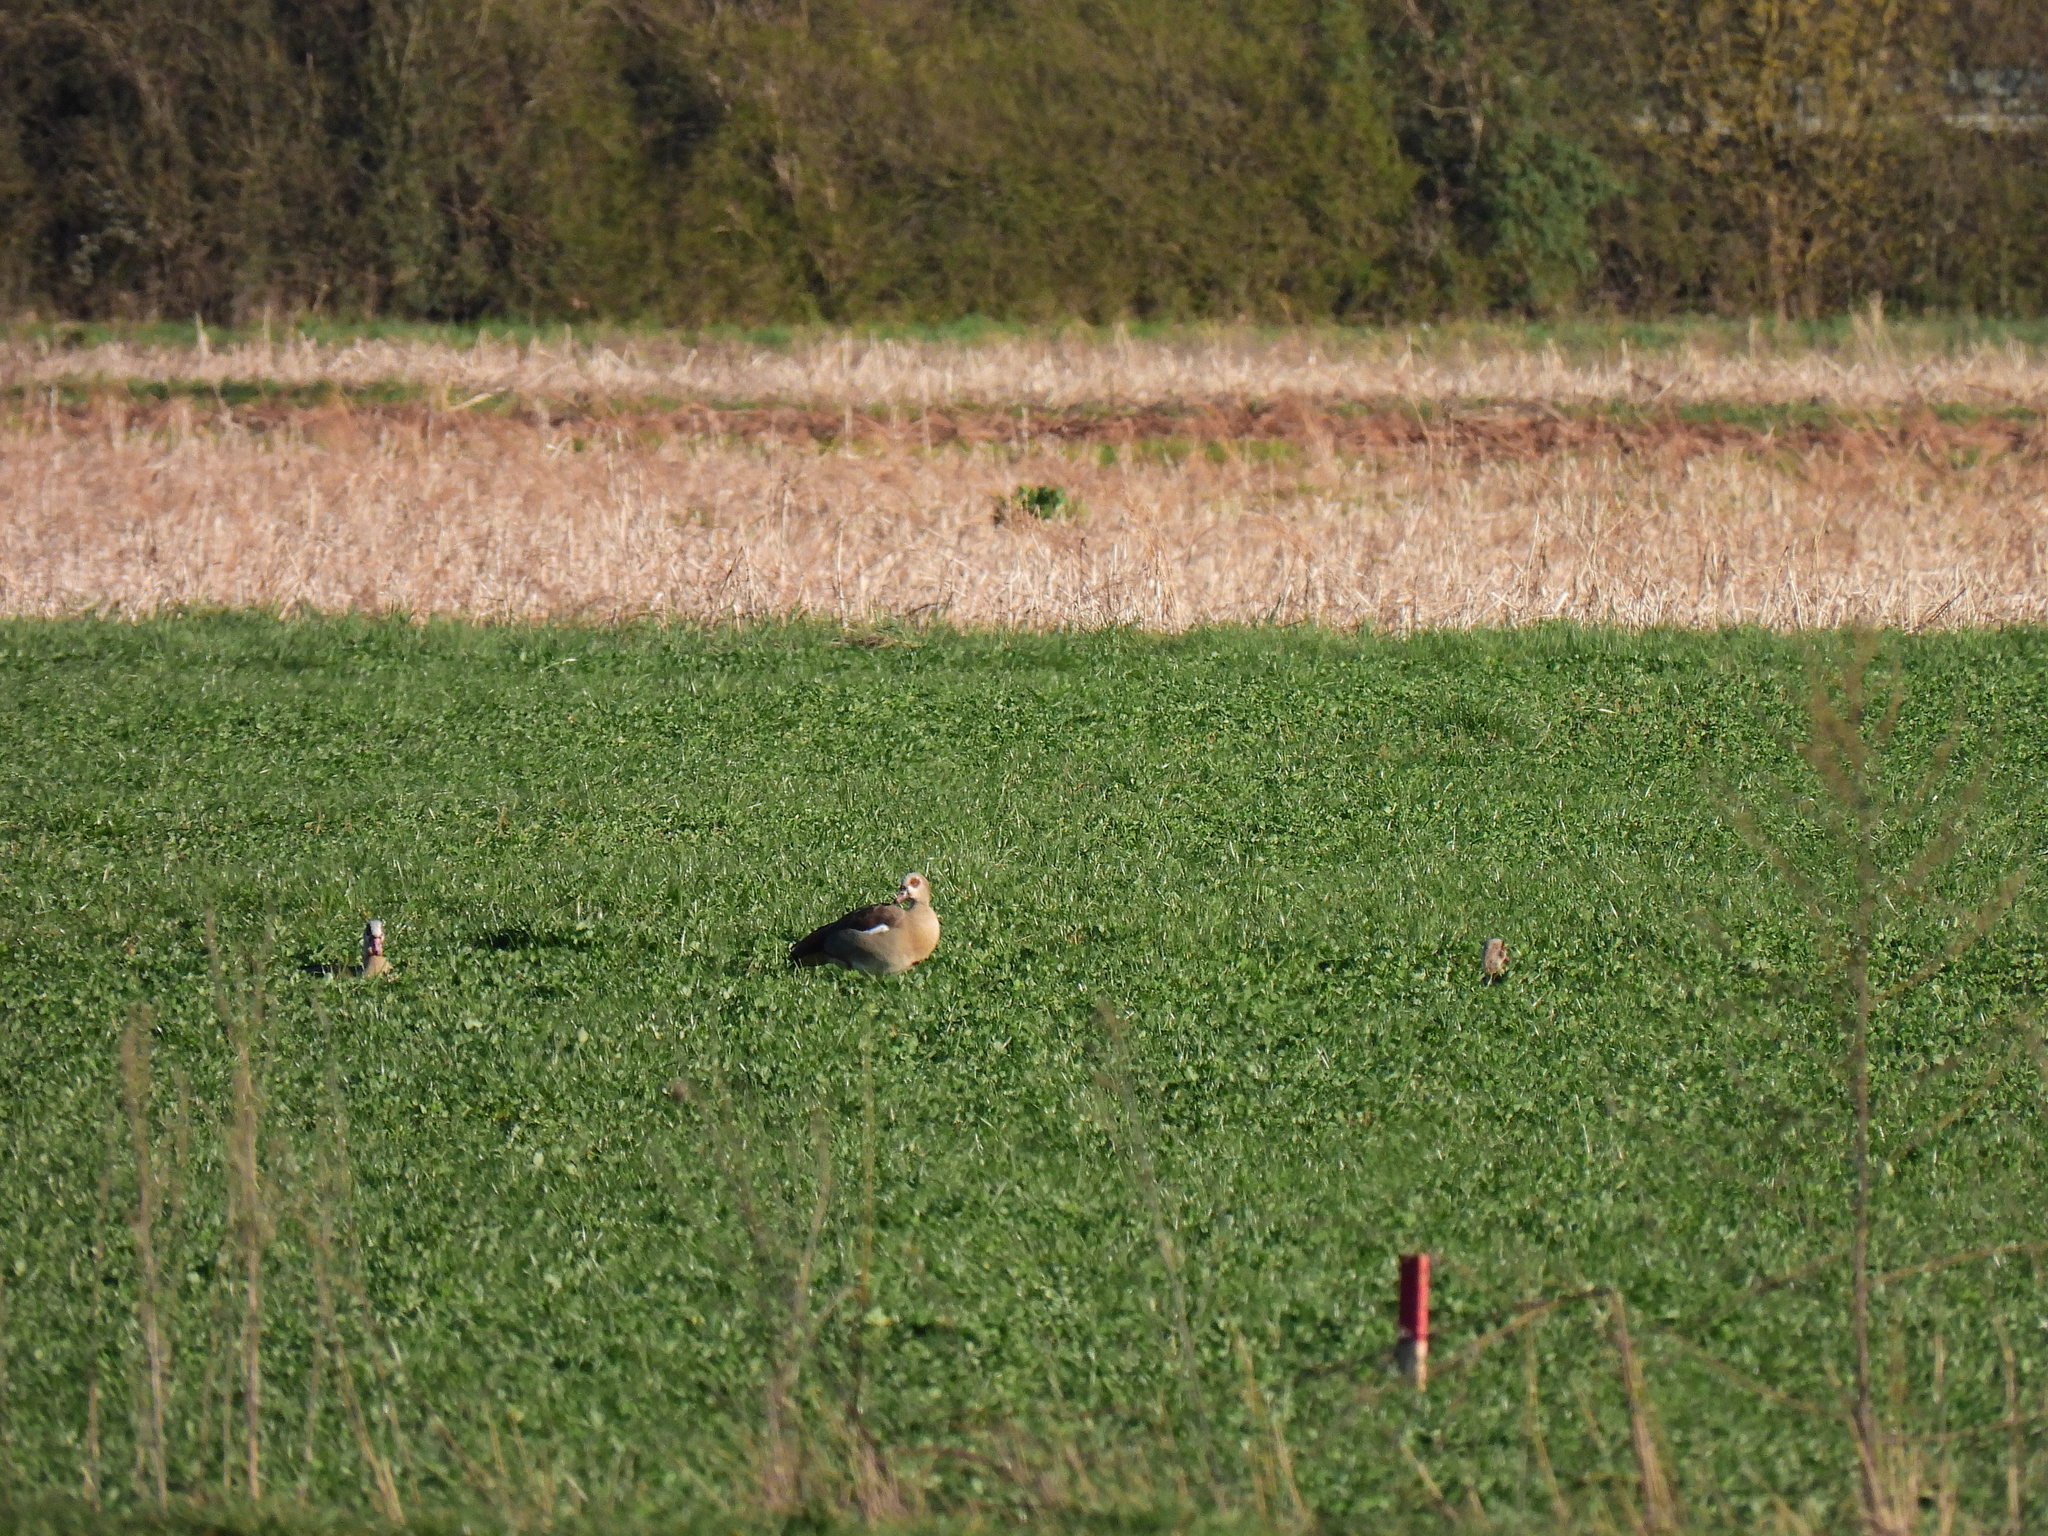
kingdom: Animalia
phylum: Chordata
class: Aves
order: Anseriformes
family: Anatidae
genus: Alopochen
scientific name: Alopochen aegyptiaca
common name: Egyptian goose
